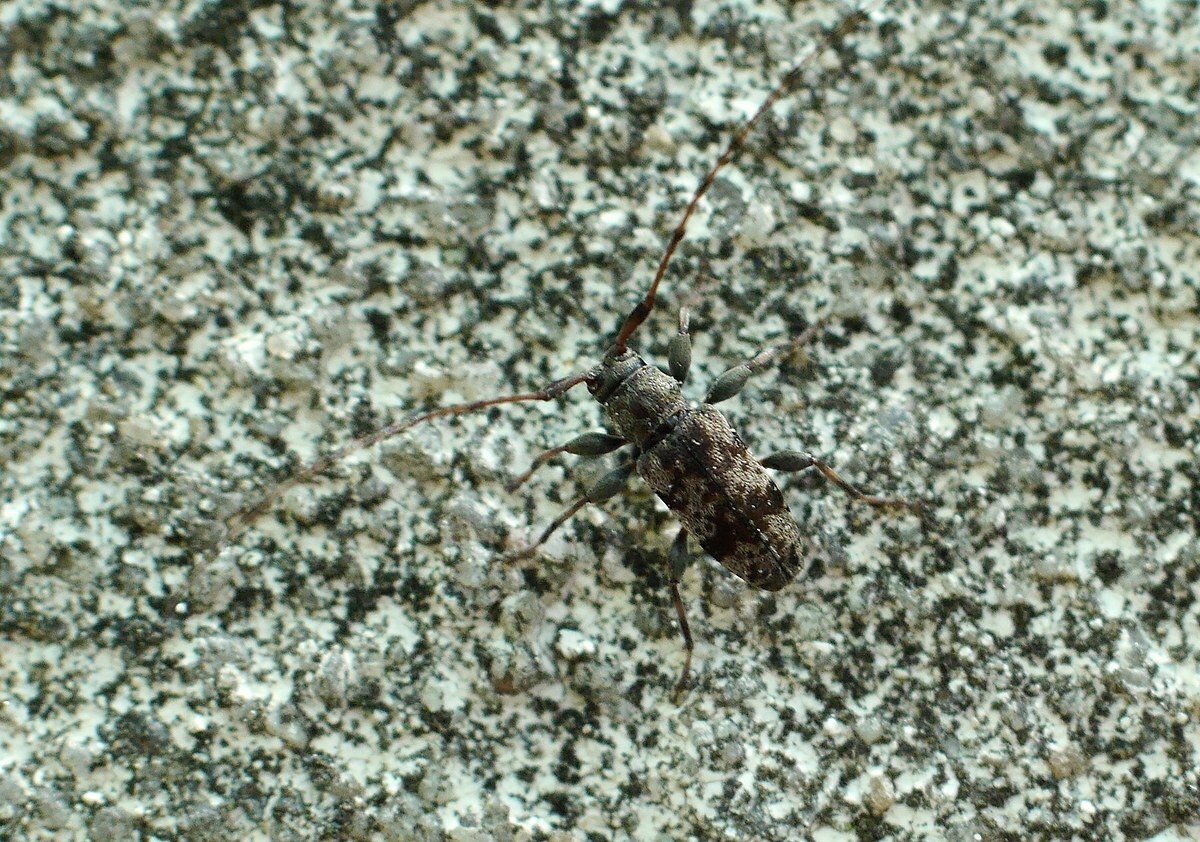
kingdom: Animalia
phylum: Arthropoda
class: Insecta
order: Coleoptera
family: Cerambycidae
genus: Leiopus
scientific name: Leiopus femoratus
